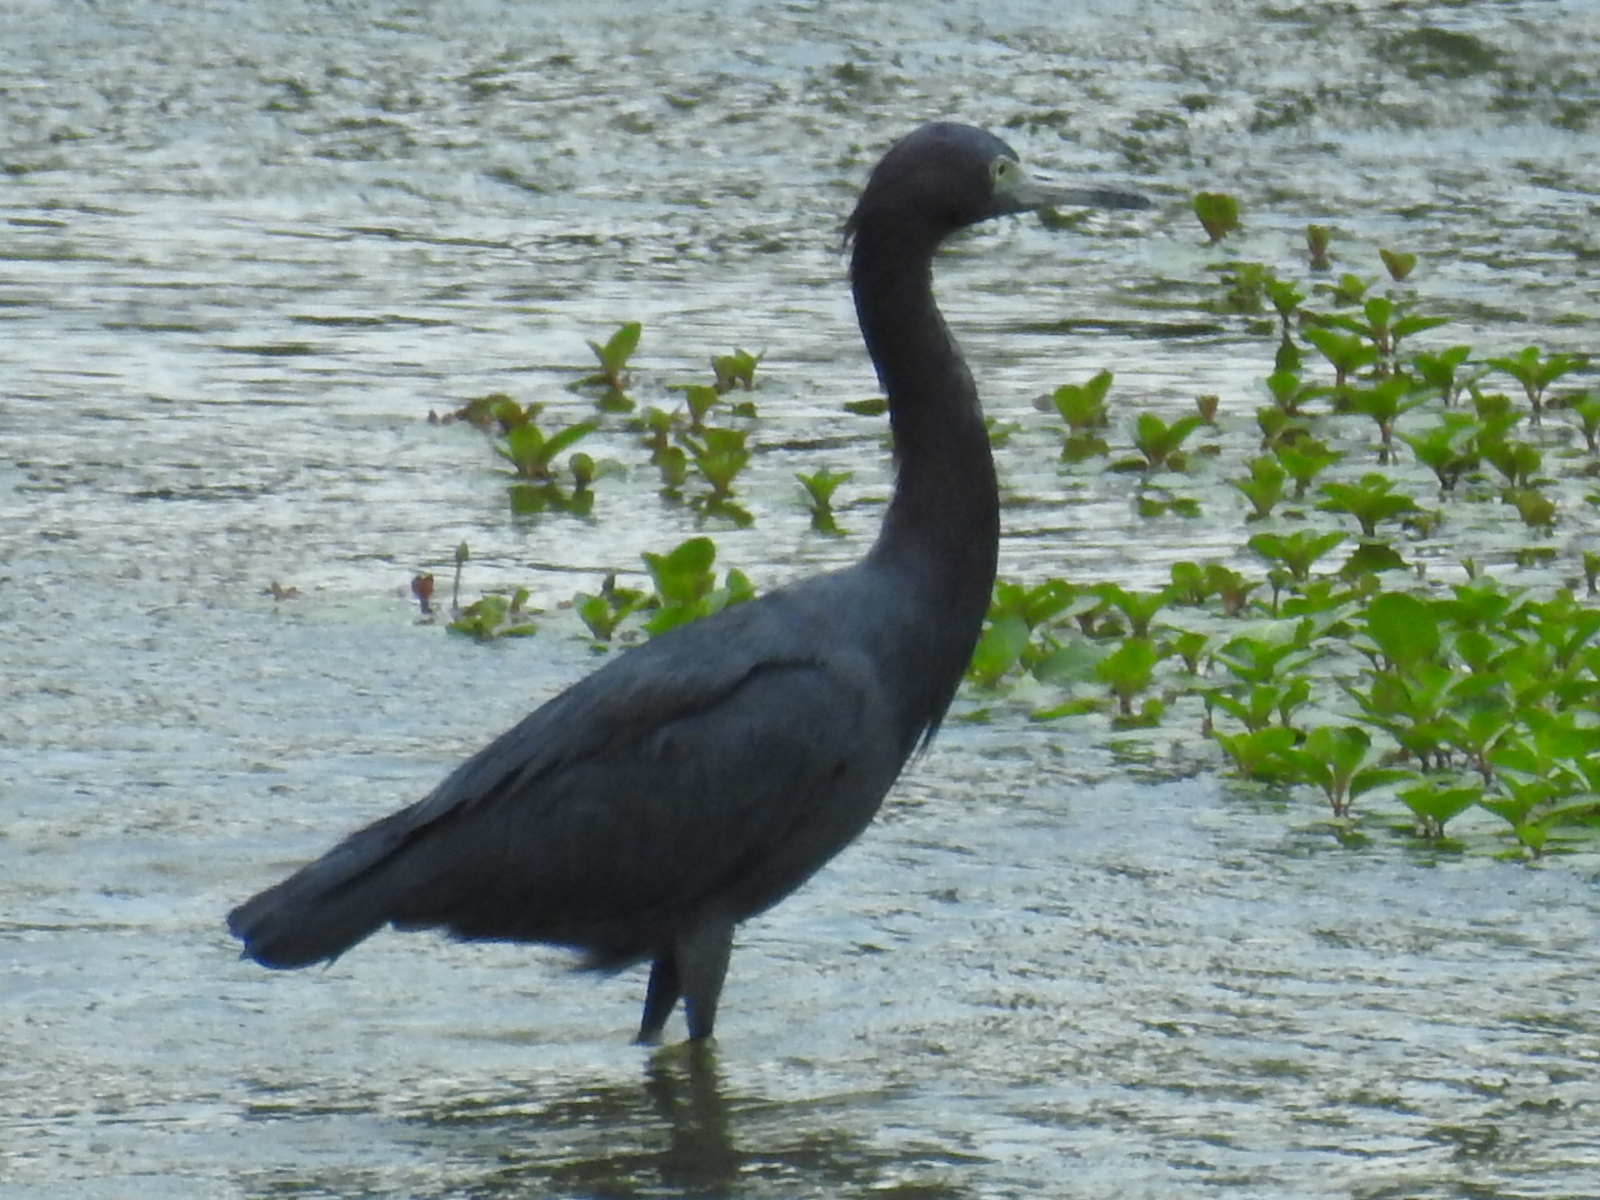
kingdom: Animalia
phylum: Chordata
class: Aves
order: Pelecaniformes
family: Ardeidae
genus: Egretta
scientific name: Egretta caerulea
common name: Little blue heron
